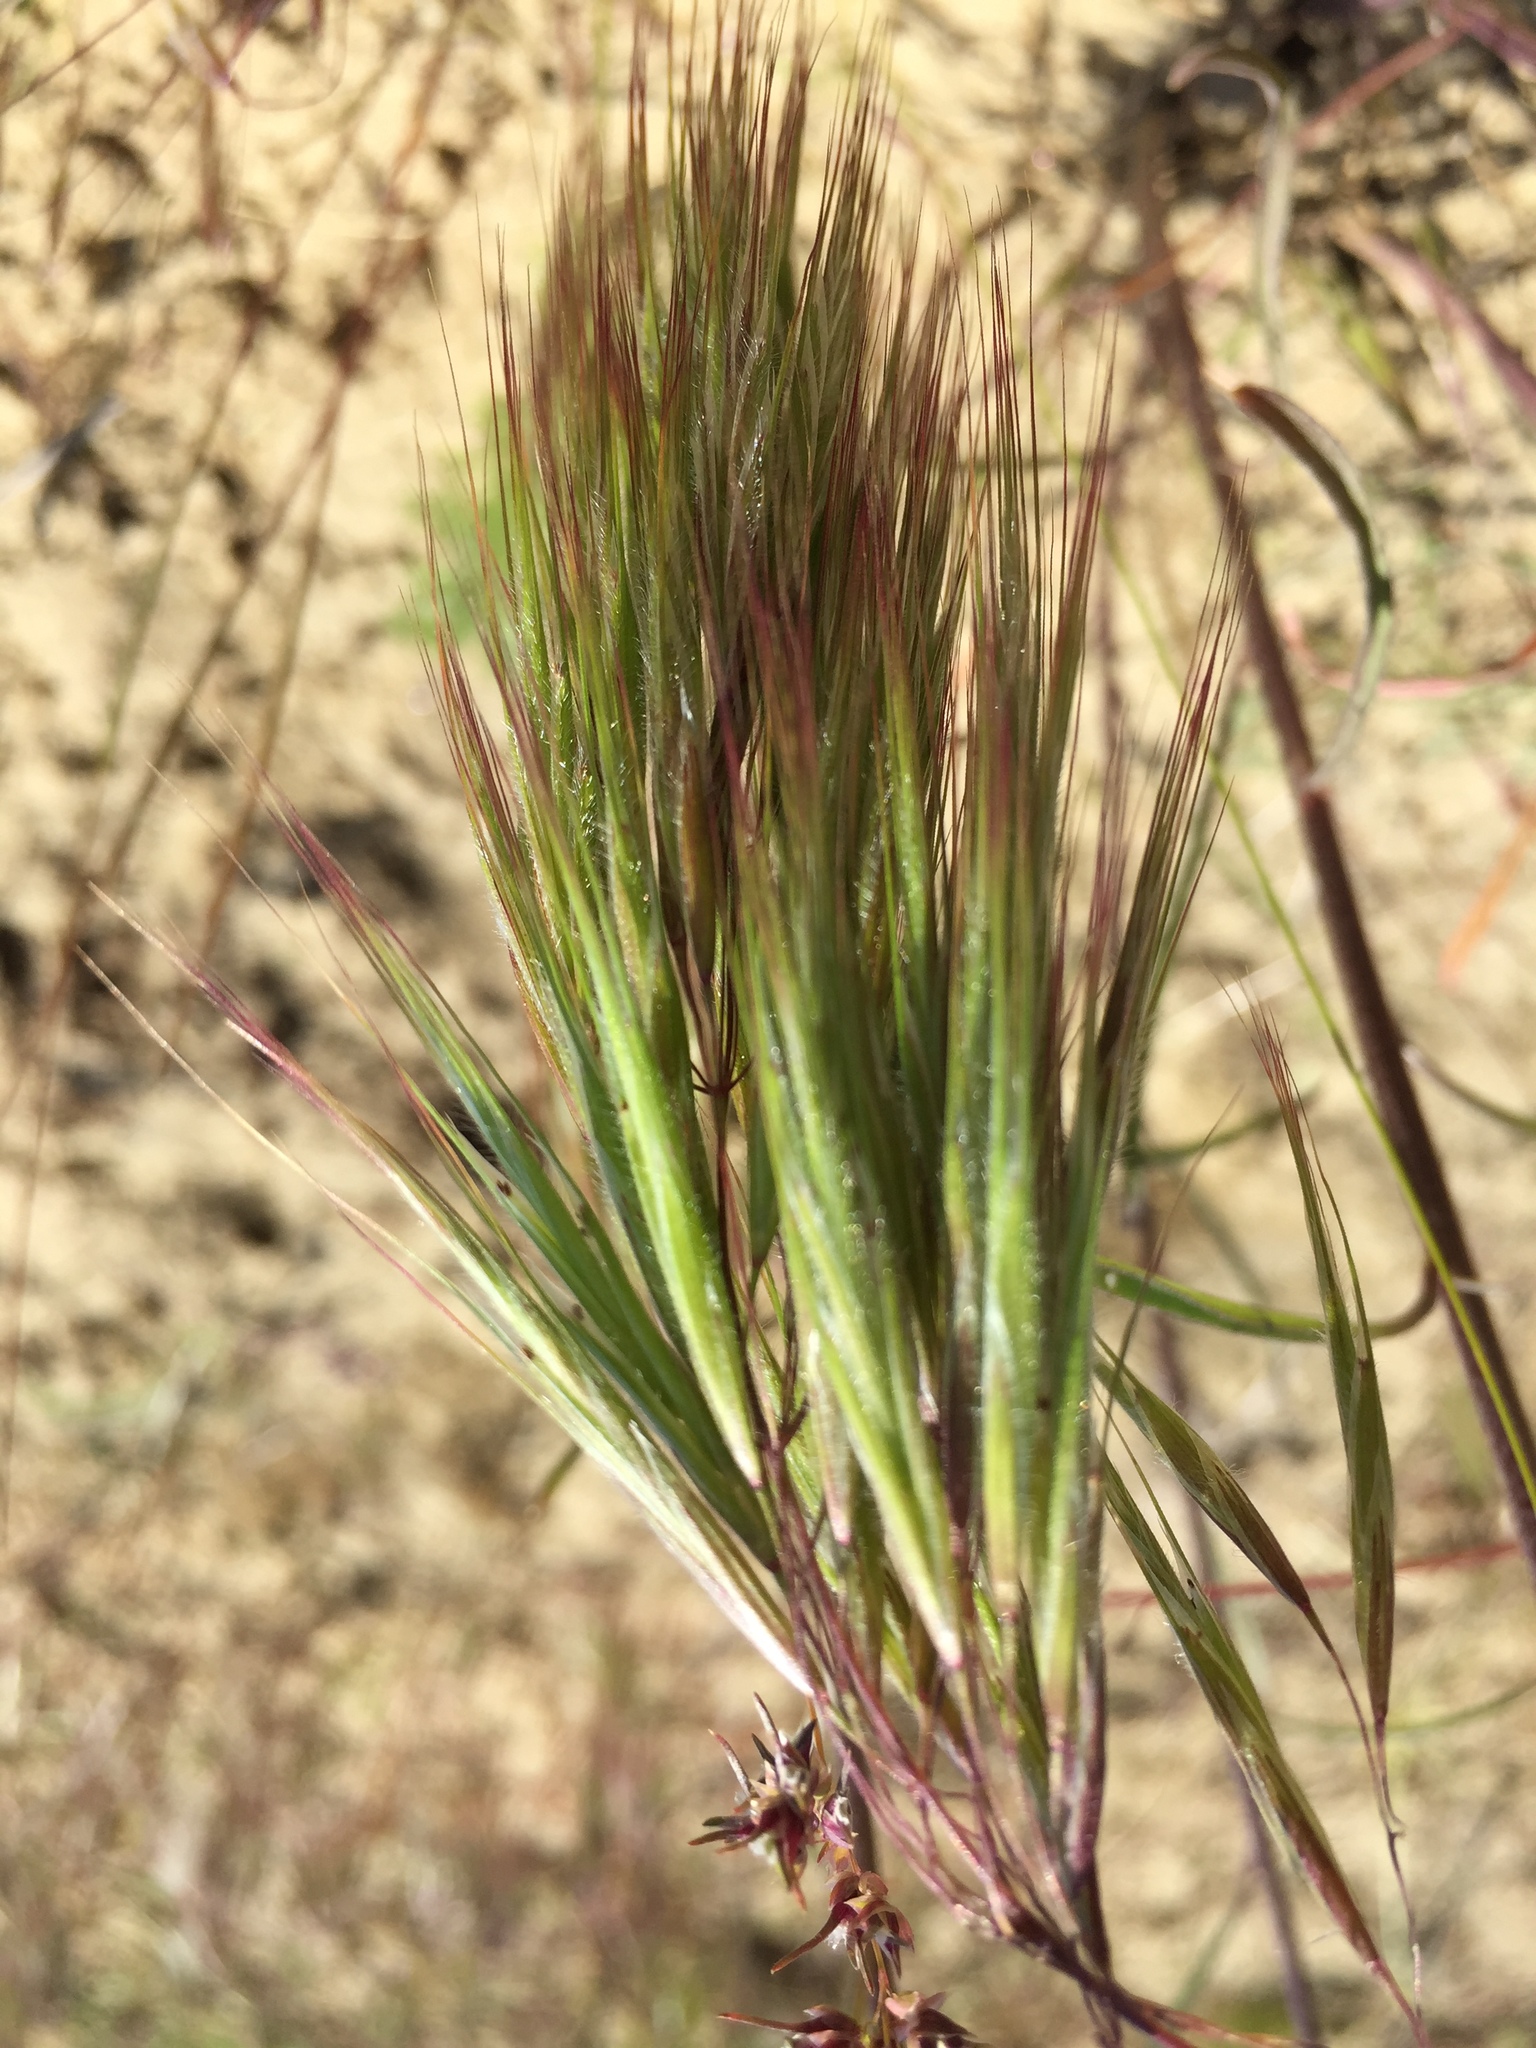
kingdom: Plantae
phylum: Tracheophyta
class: Liliopsida
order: Poales
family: Poaceae
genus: Bromus
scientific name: Bromus tectorum
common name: Cheatgrass
